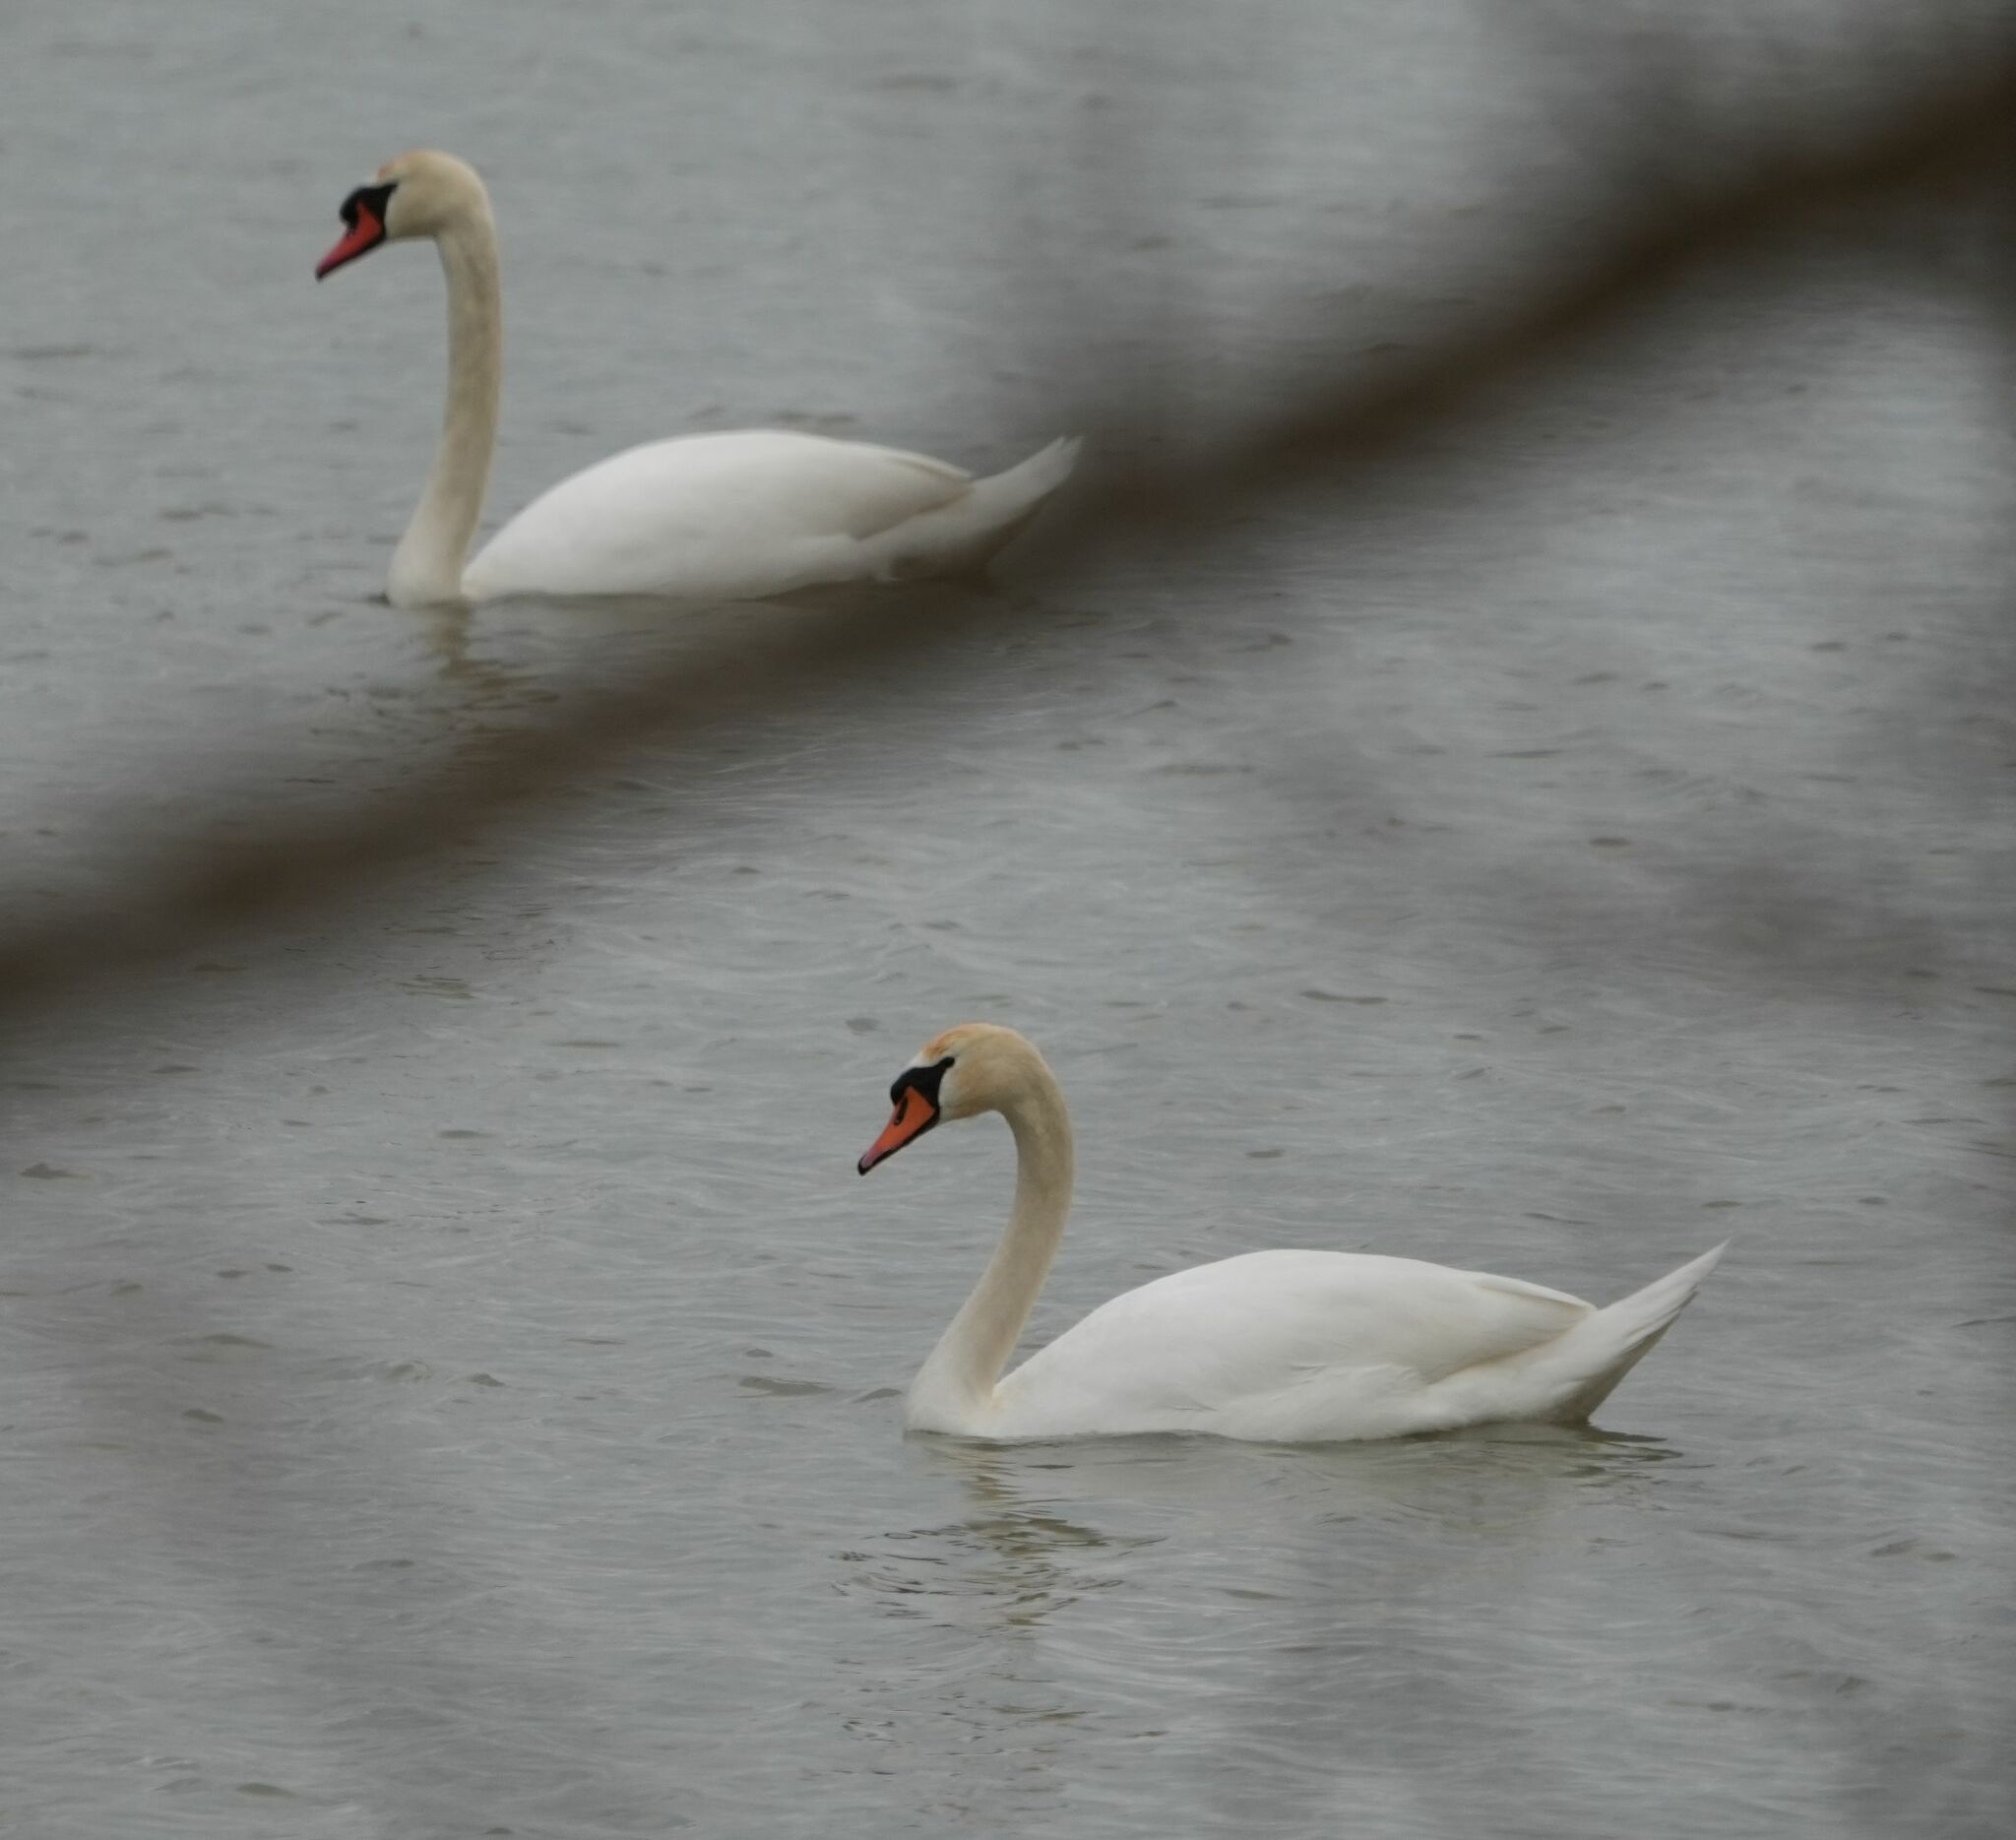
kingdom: Animalia
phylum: Chordata
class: Aves
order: Anseriformes
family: Anatidae
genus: Cygnus
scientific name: Cygnus olor
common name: Mute swan
